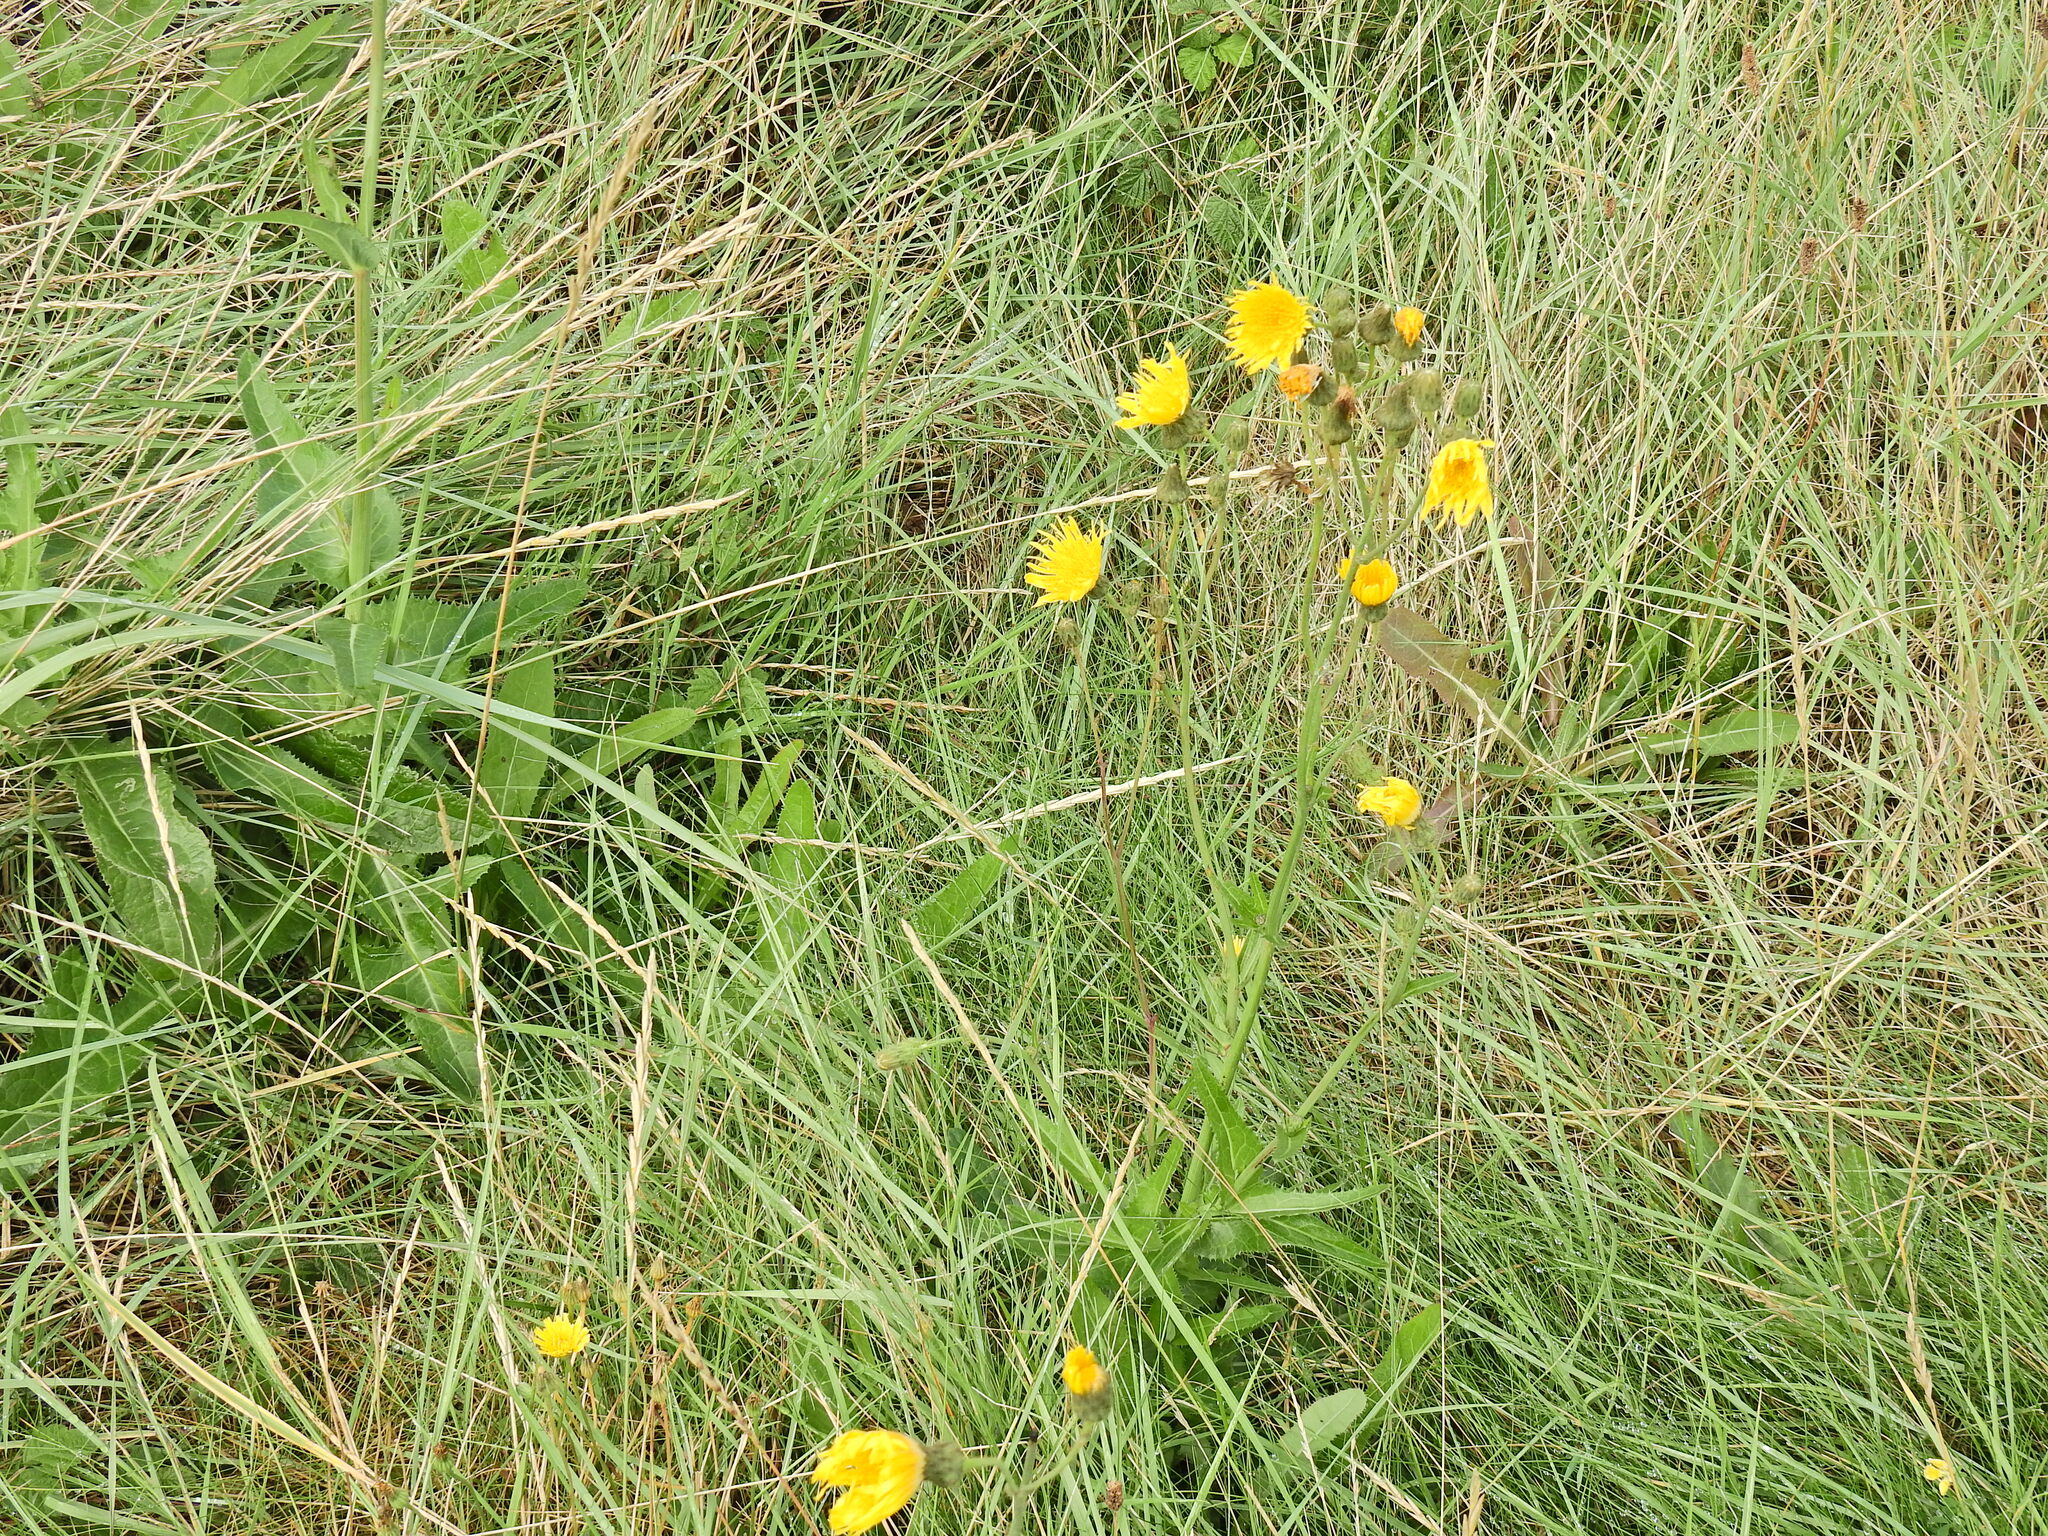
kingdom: Plantae
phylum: Tracheophyta
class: Magnoliopsida
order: Asterales
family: Asteraceae
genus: Sonchus
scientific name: Sonchus arvensis
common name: Perennial sow-thistle
